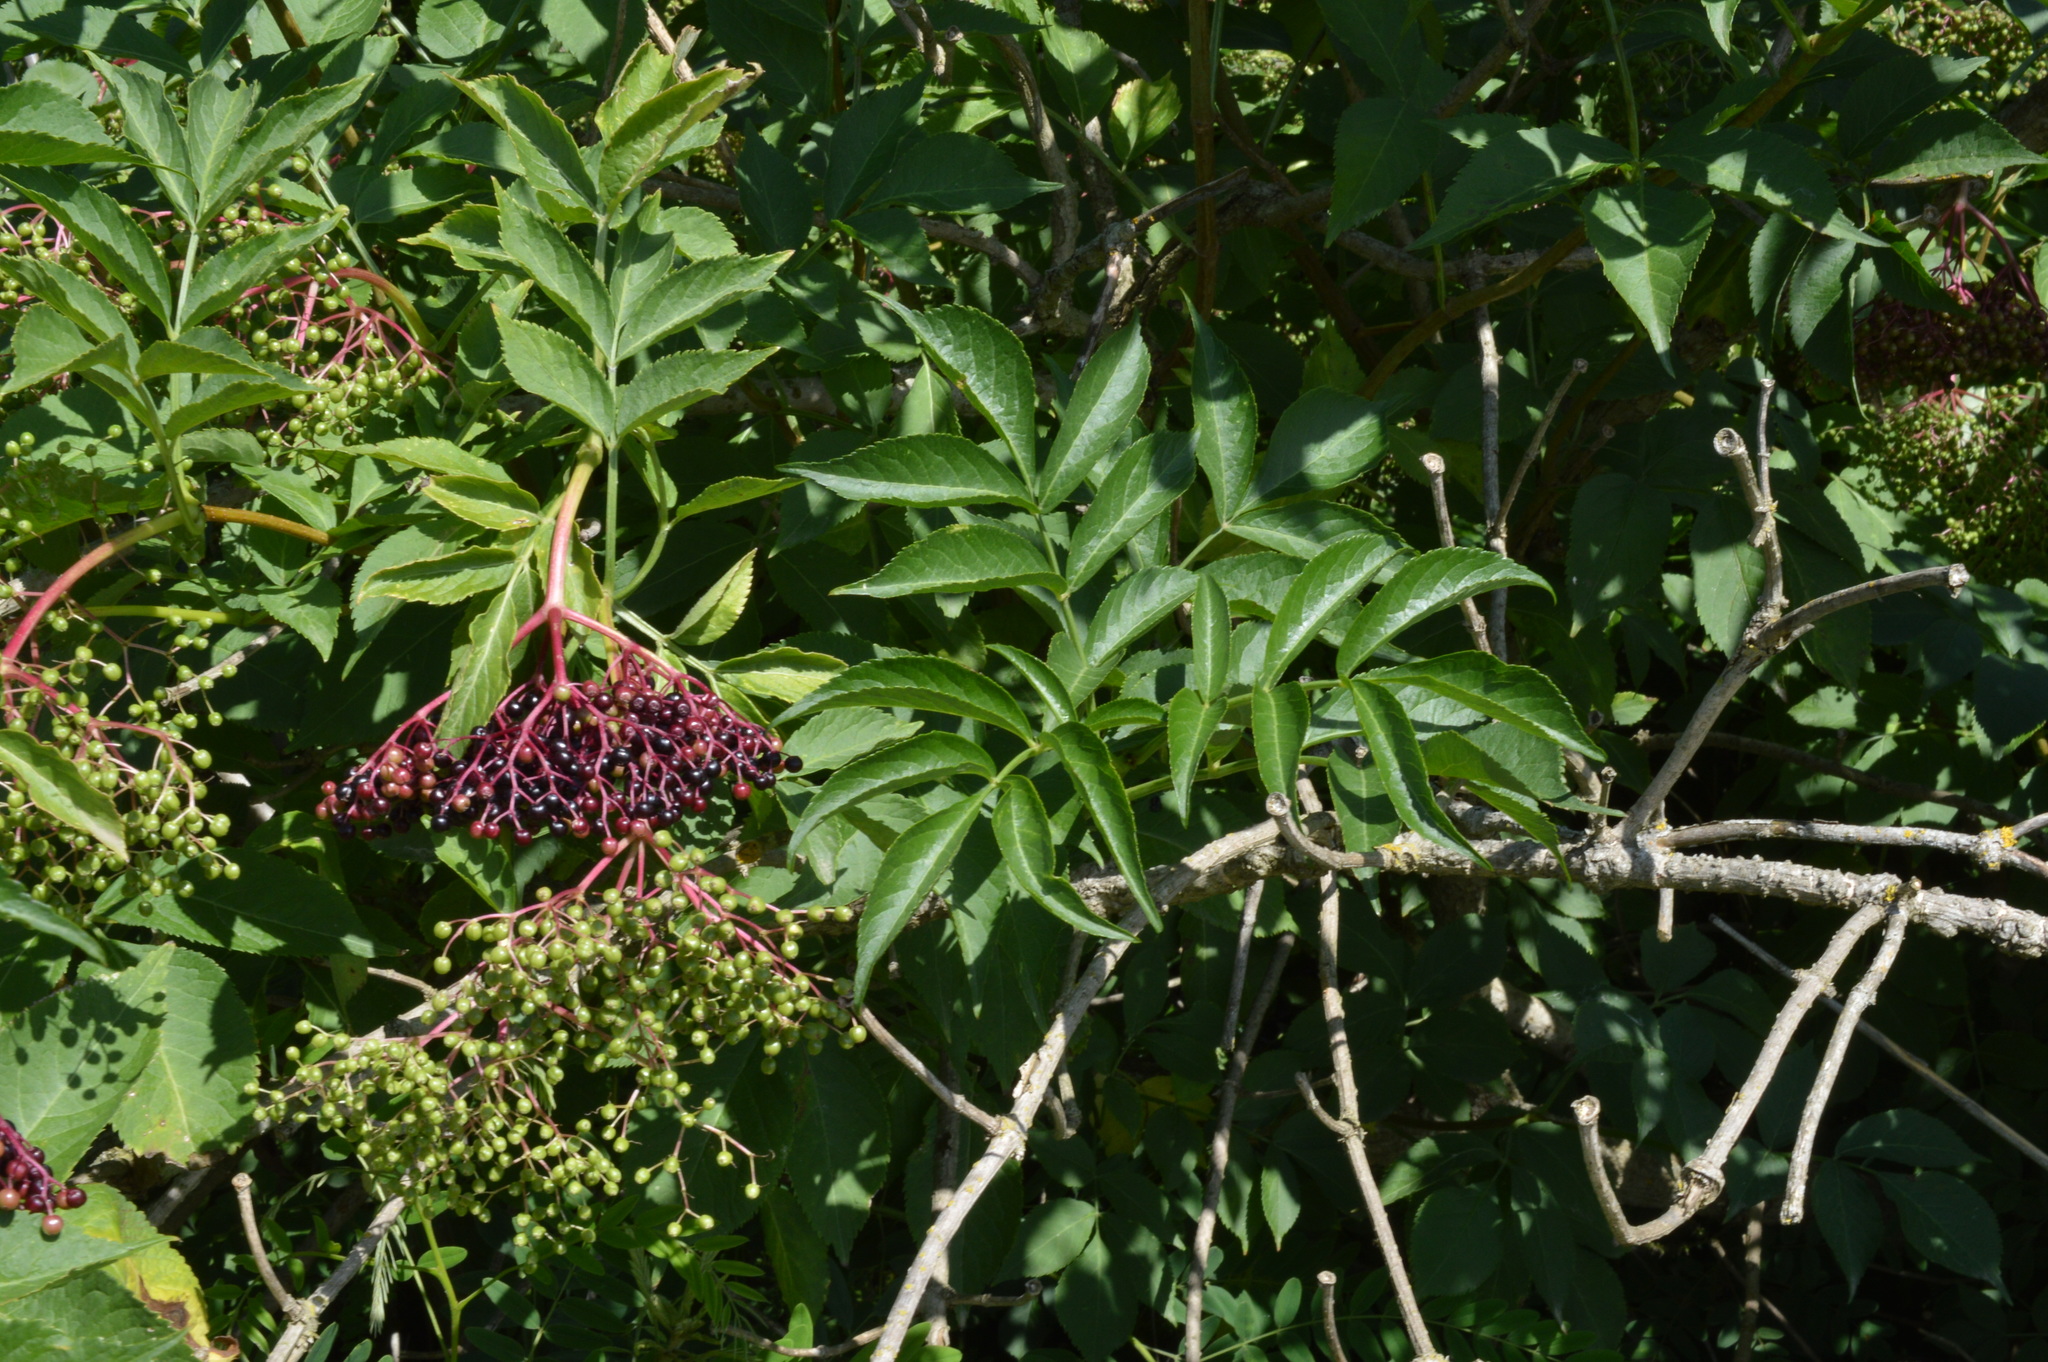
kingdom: Plantae
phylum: Tracheophyta
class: Magnoliopsida
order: Dipsacales
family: Viburnaceae
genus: Sambucus
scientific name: Sambucus nigra
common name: Elder
